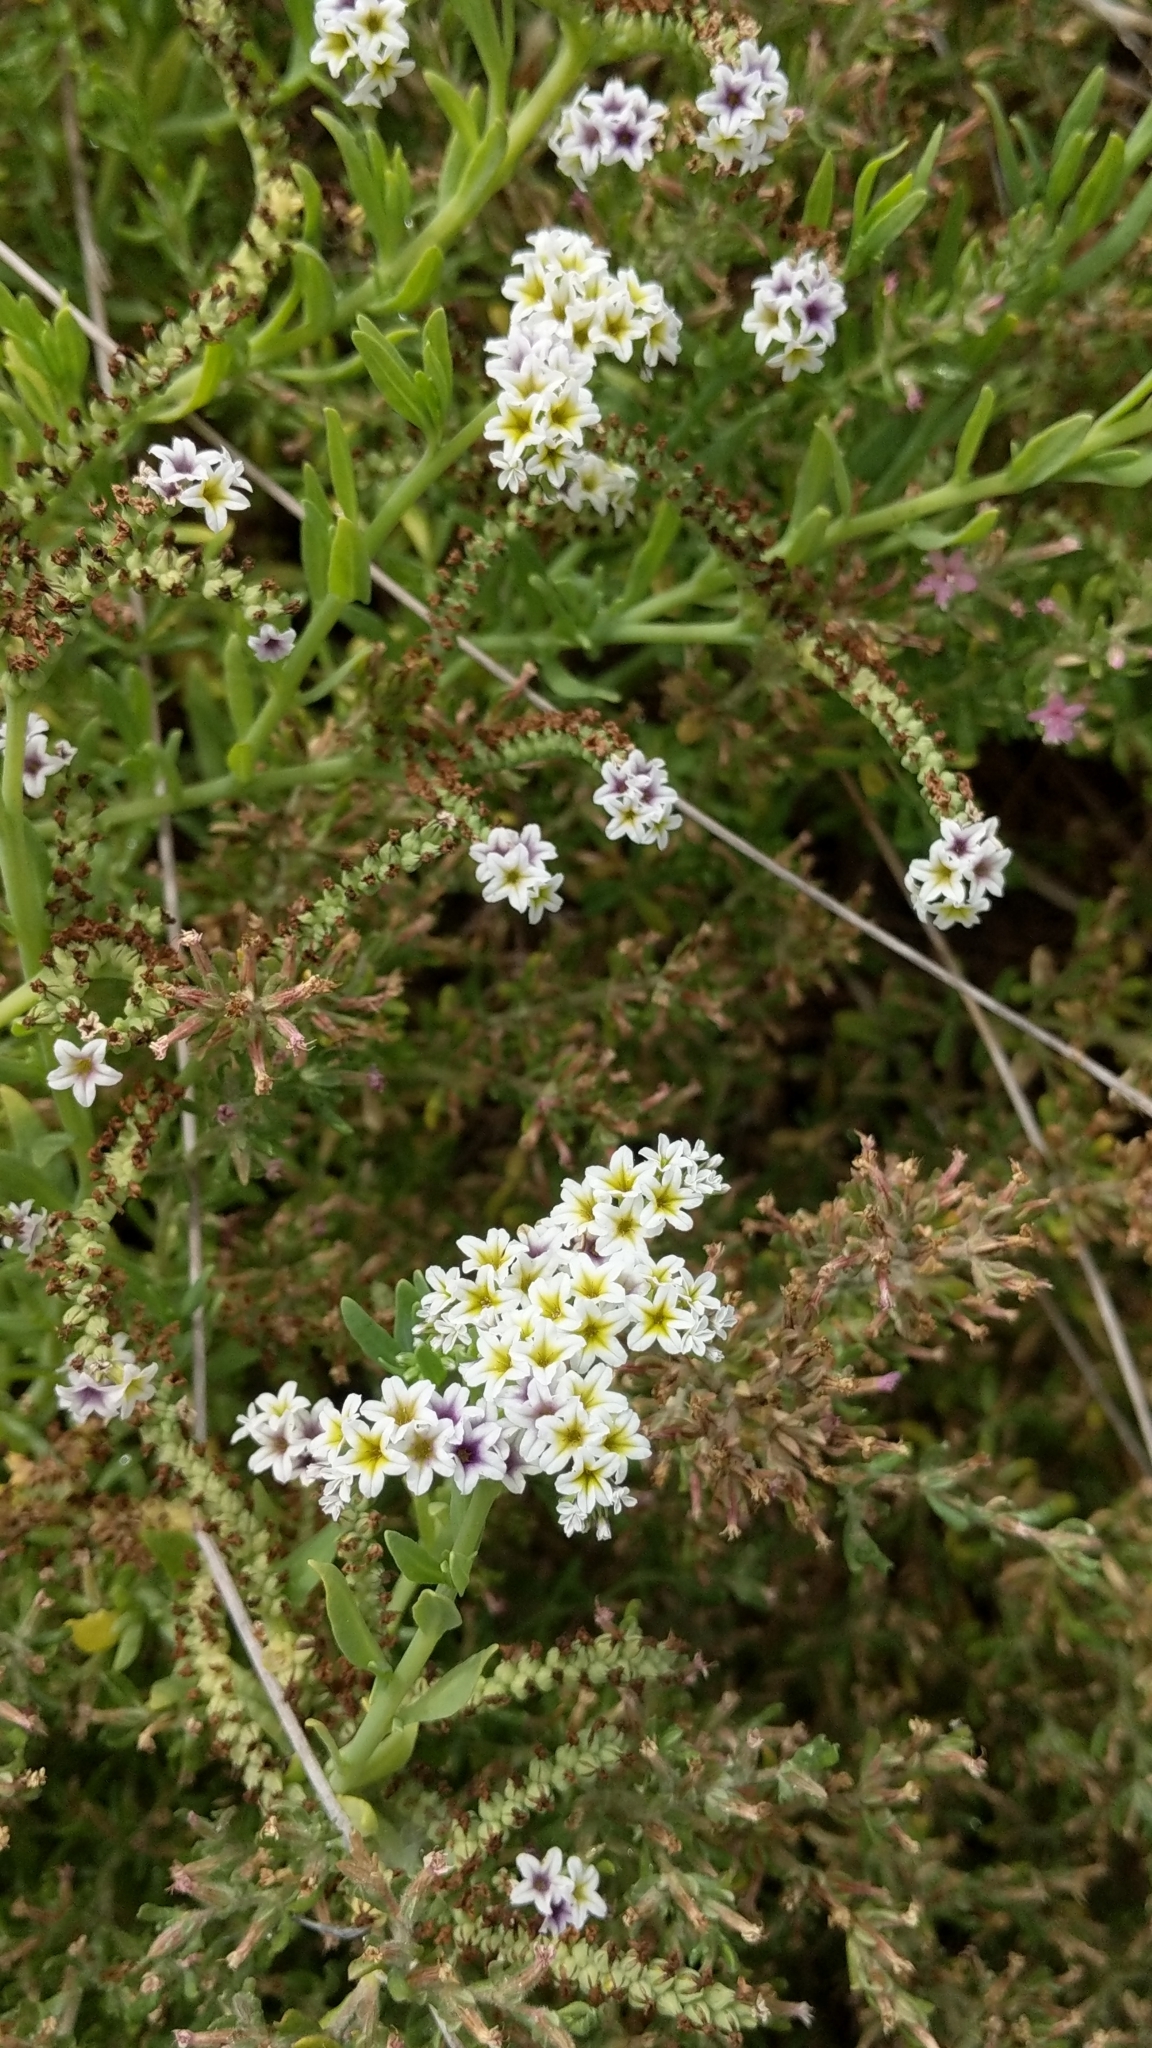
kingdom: Plantae
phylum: Tracheophyta
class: Magnoliopsida
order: Boraginales
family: Heliotropiaceae
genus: Heliotropium
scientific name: Heliotropium curassavicum
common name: Seaside heliotrope
